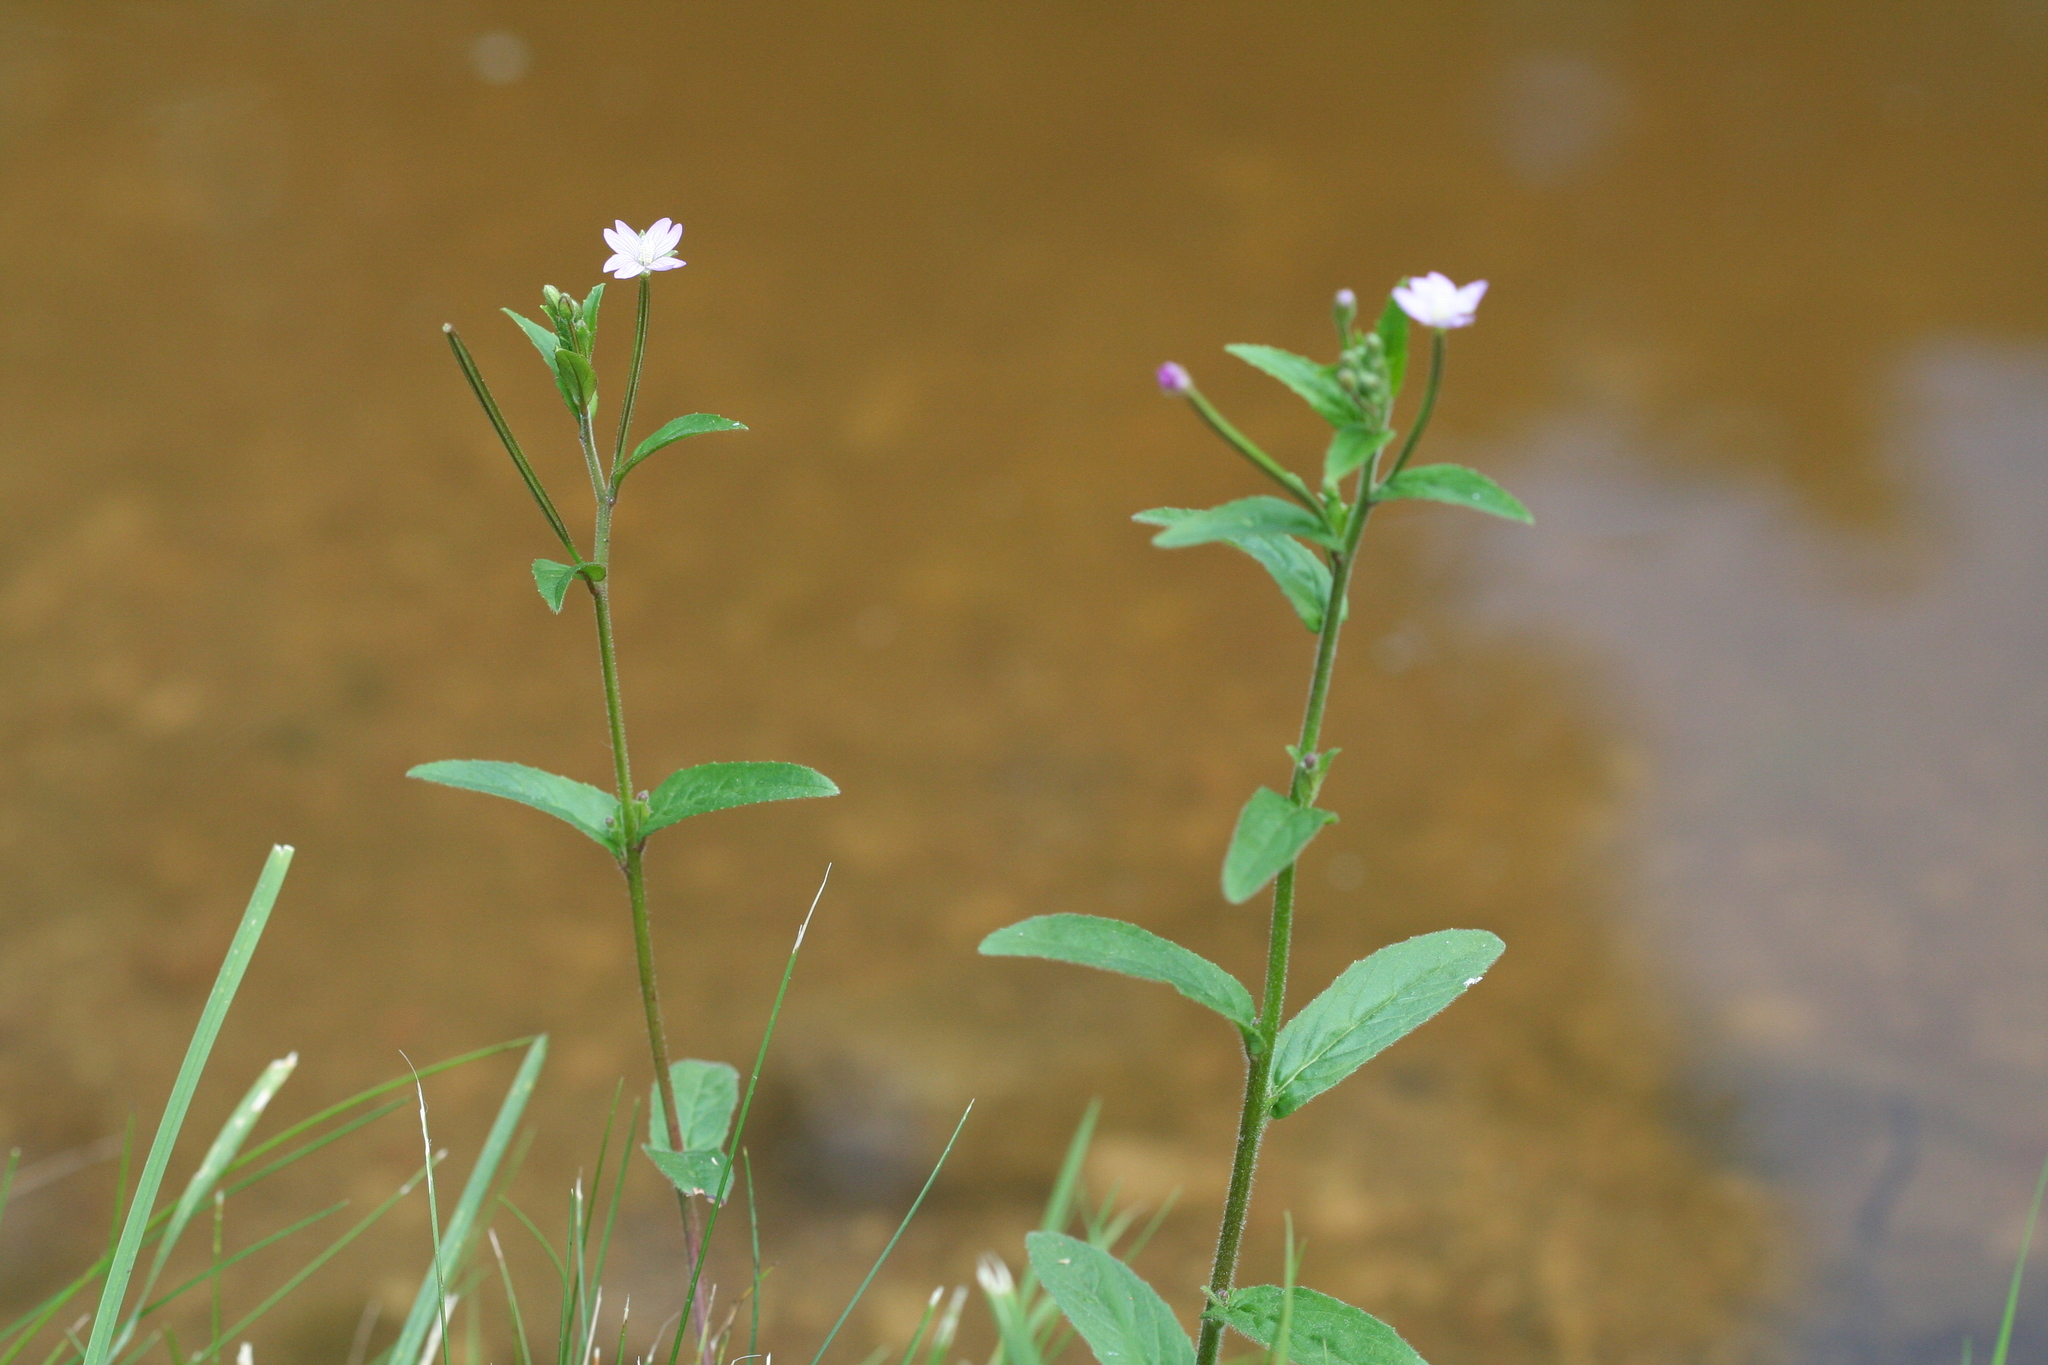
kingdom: Plantae
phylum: Tracheophyta
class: Magnoliopsida
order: Myrtales
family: Onagraceae
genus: Epilobium
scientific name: Epilobium ciliatum
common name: American willowherb
